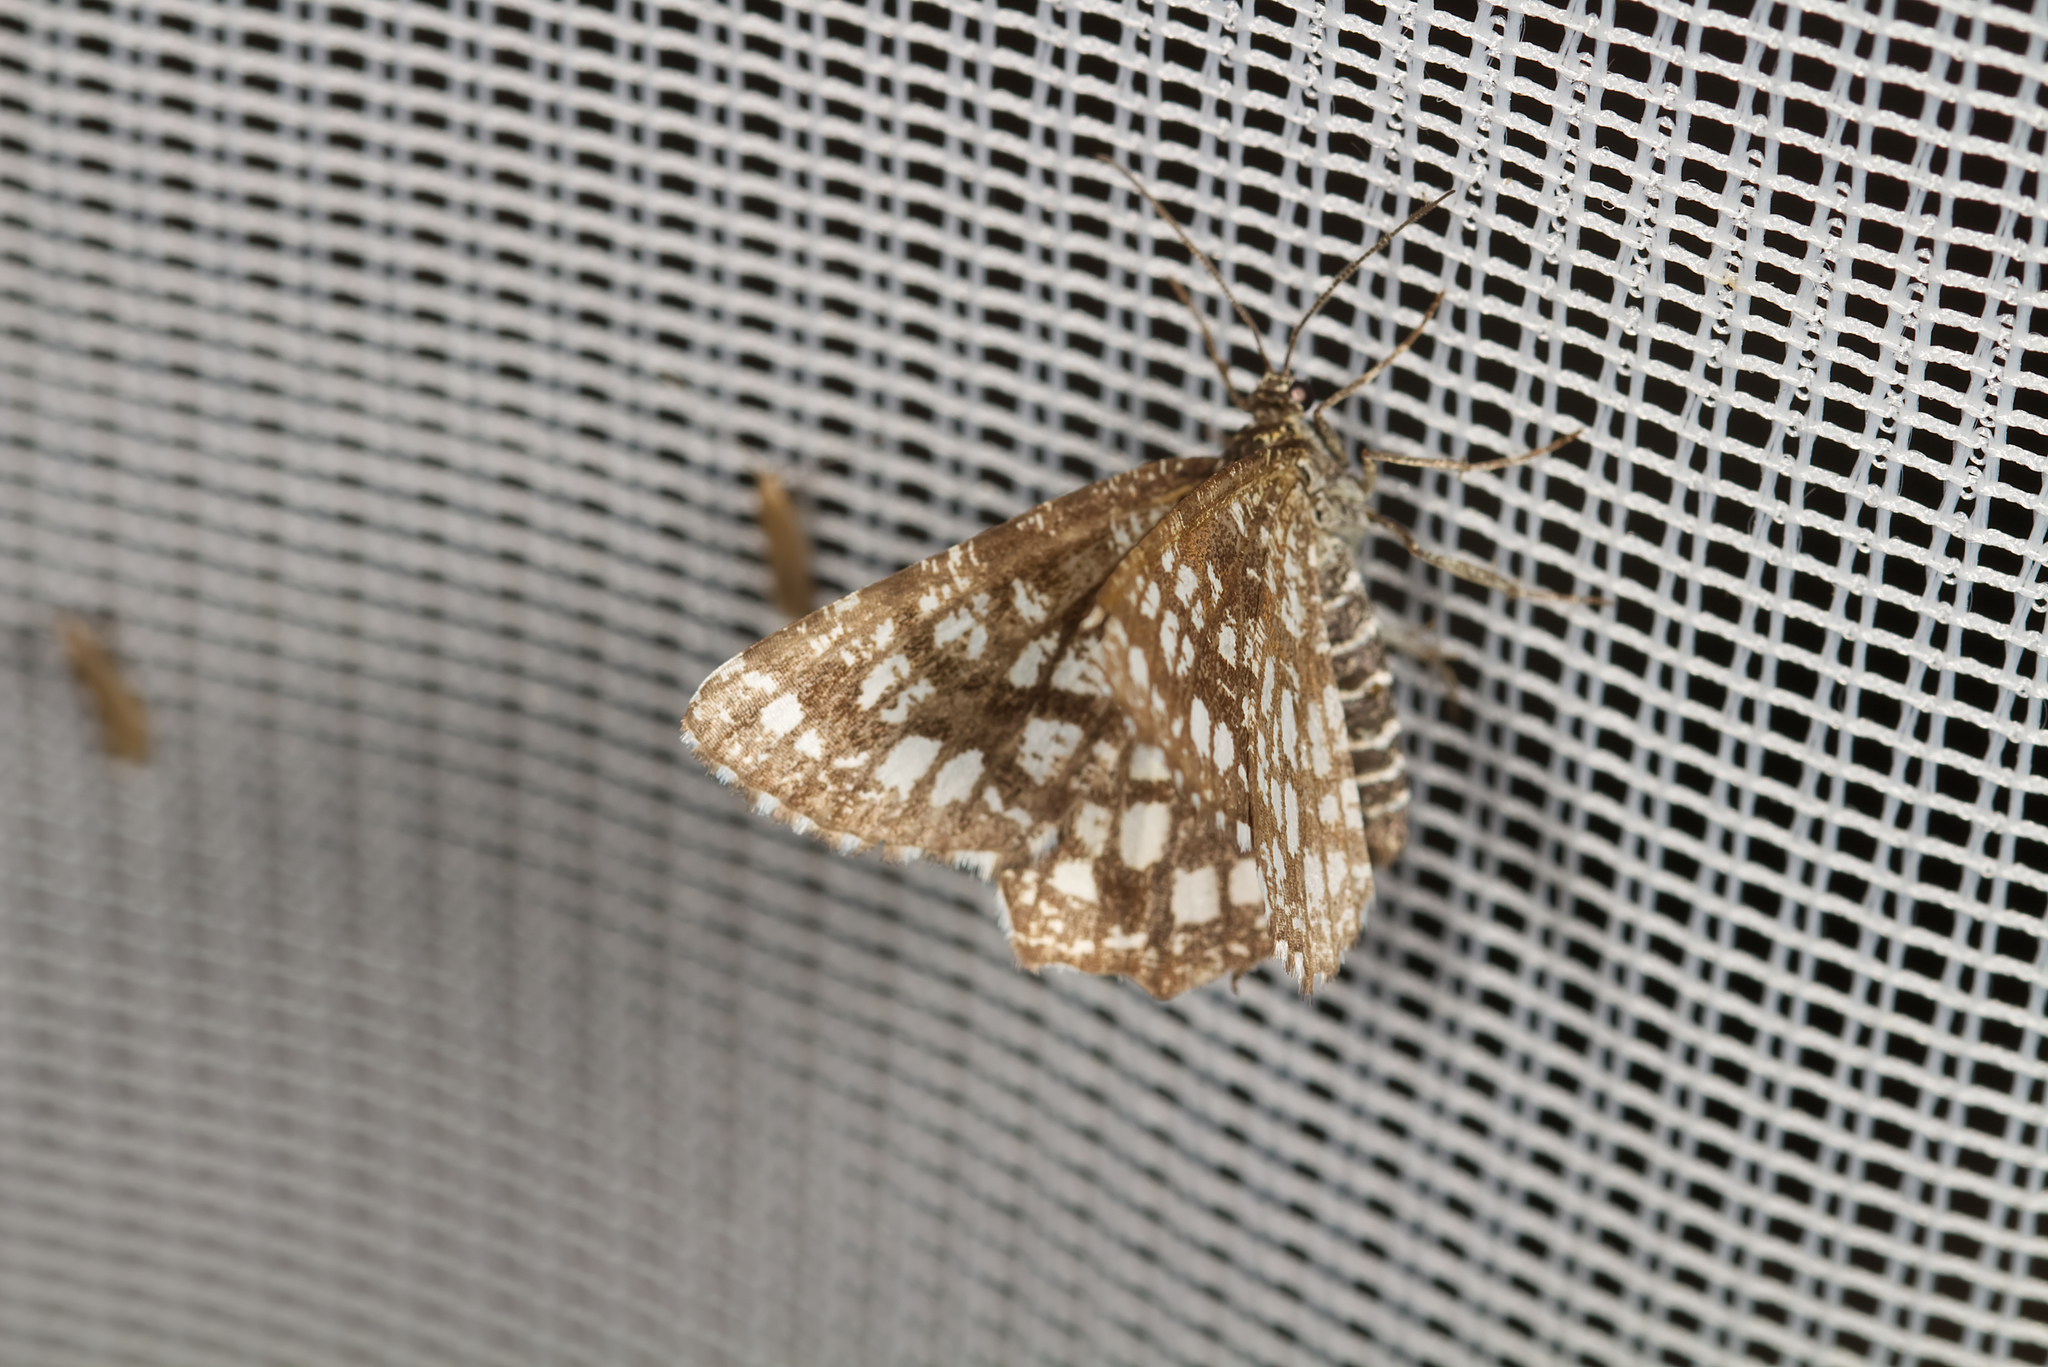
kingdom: Animalia
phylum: Arthropoda
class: Insecta
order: Lepidoptera
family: Geometridae
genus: Chiasmia
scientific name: Chiasmia clathrata
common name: Latticed heath
